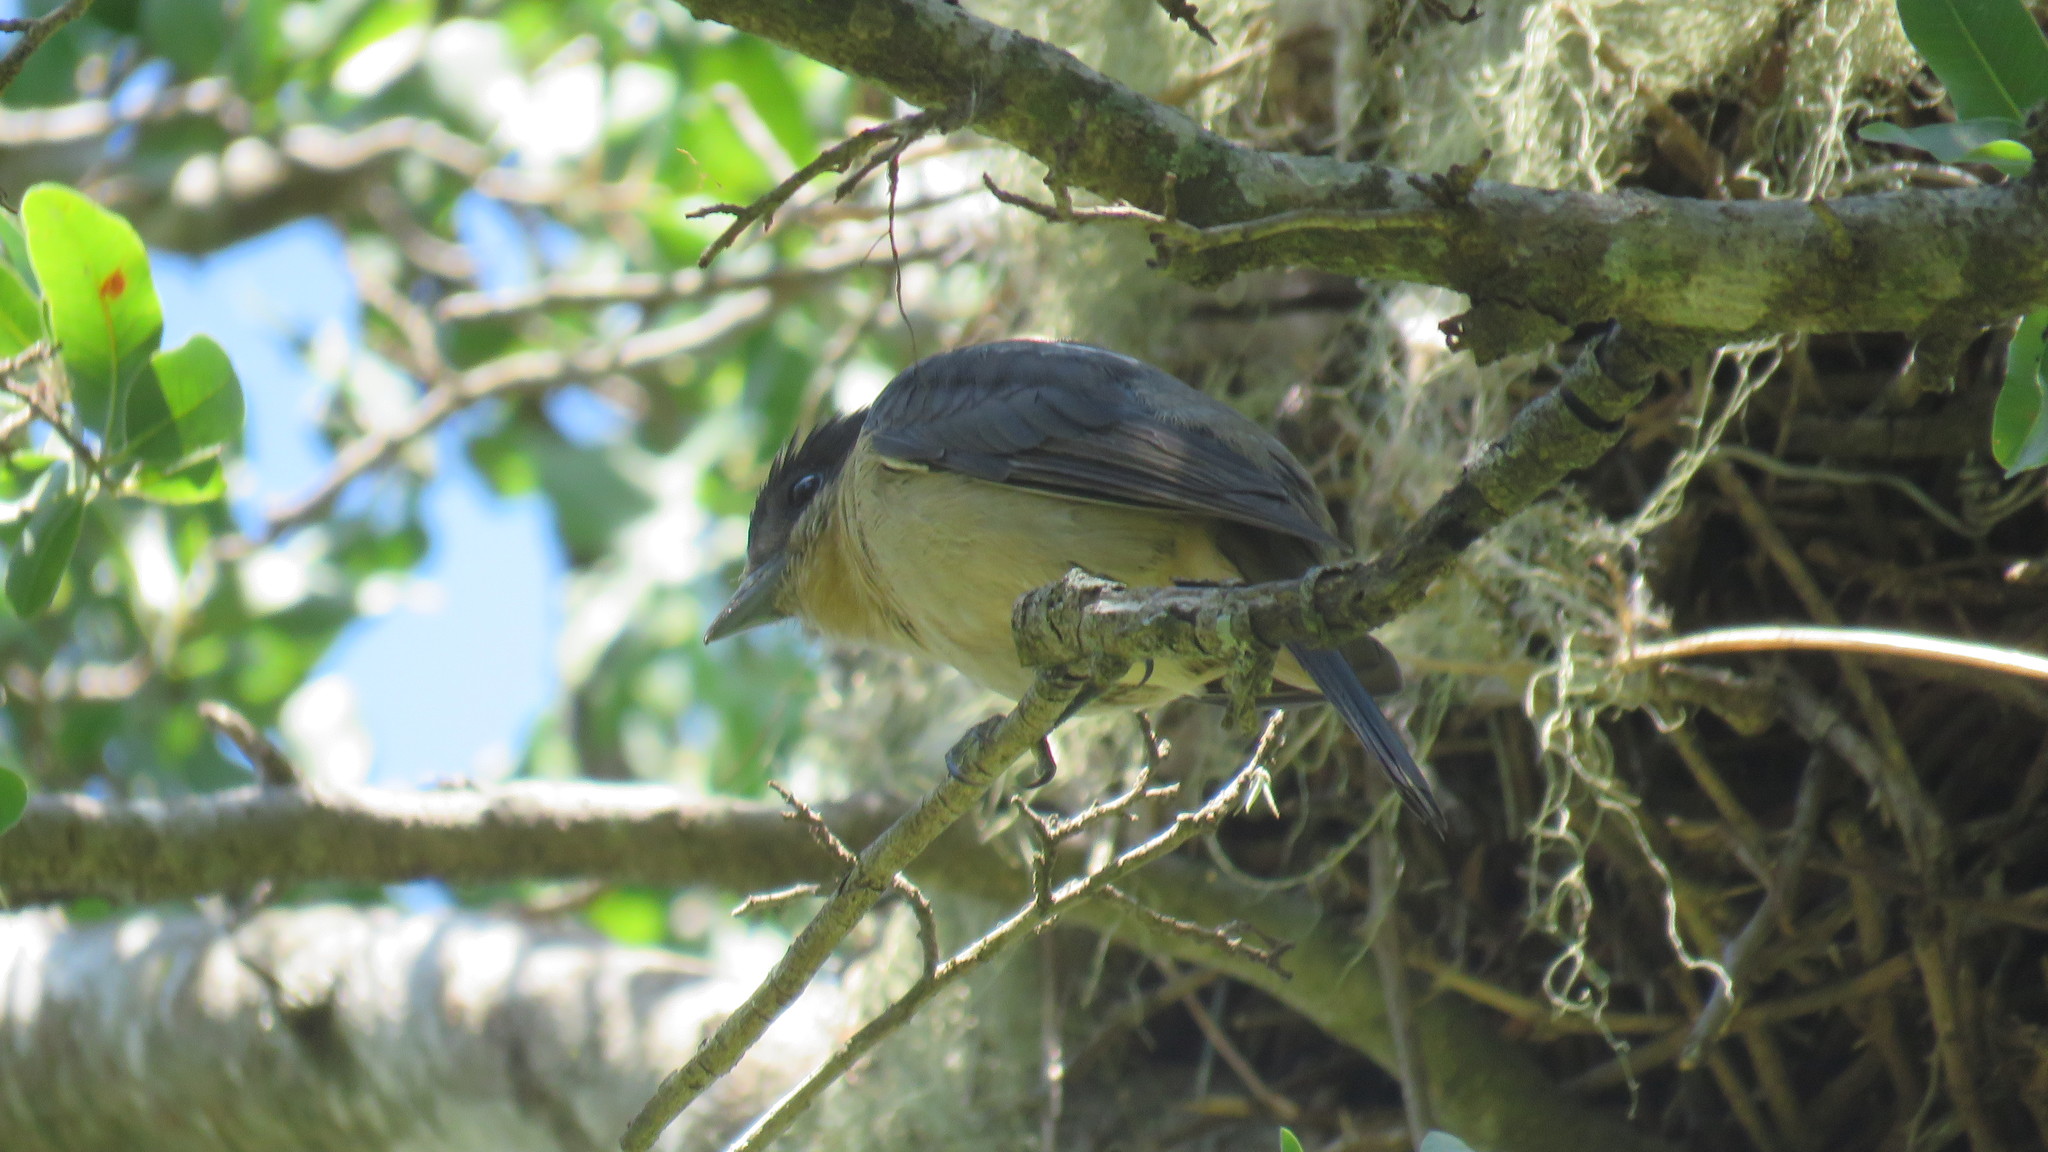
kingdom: Animalia
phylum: Chordata
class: Aves
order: Passeriformes
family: Cotingidae
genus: Pachyramphus
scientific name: Pachyramphus validus
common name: Crested becard
